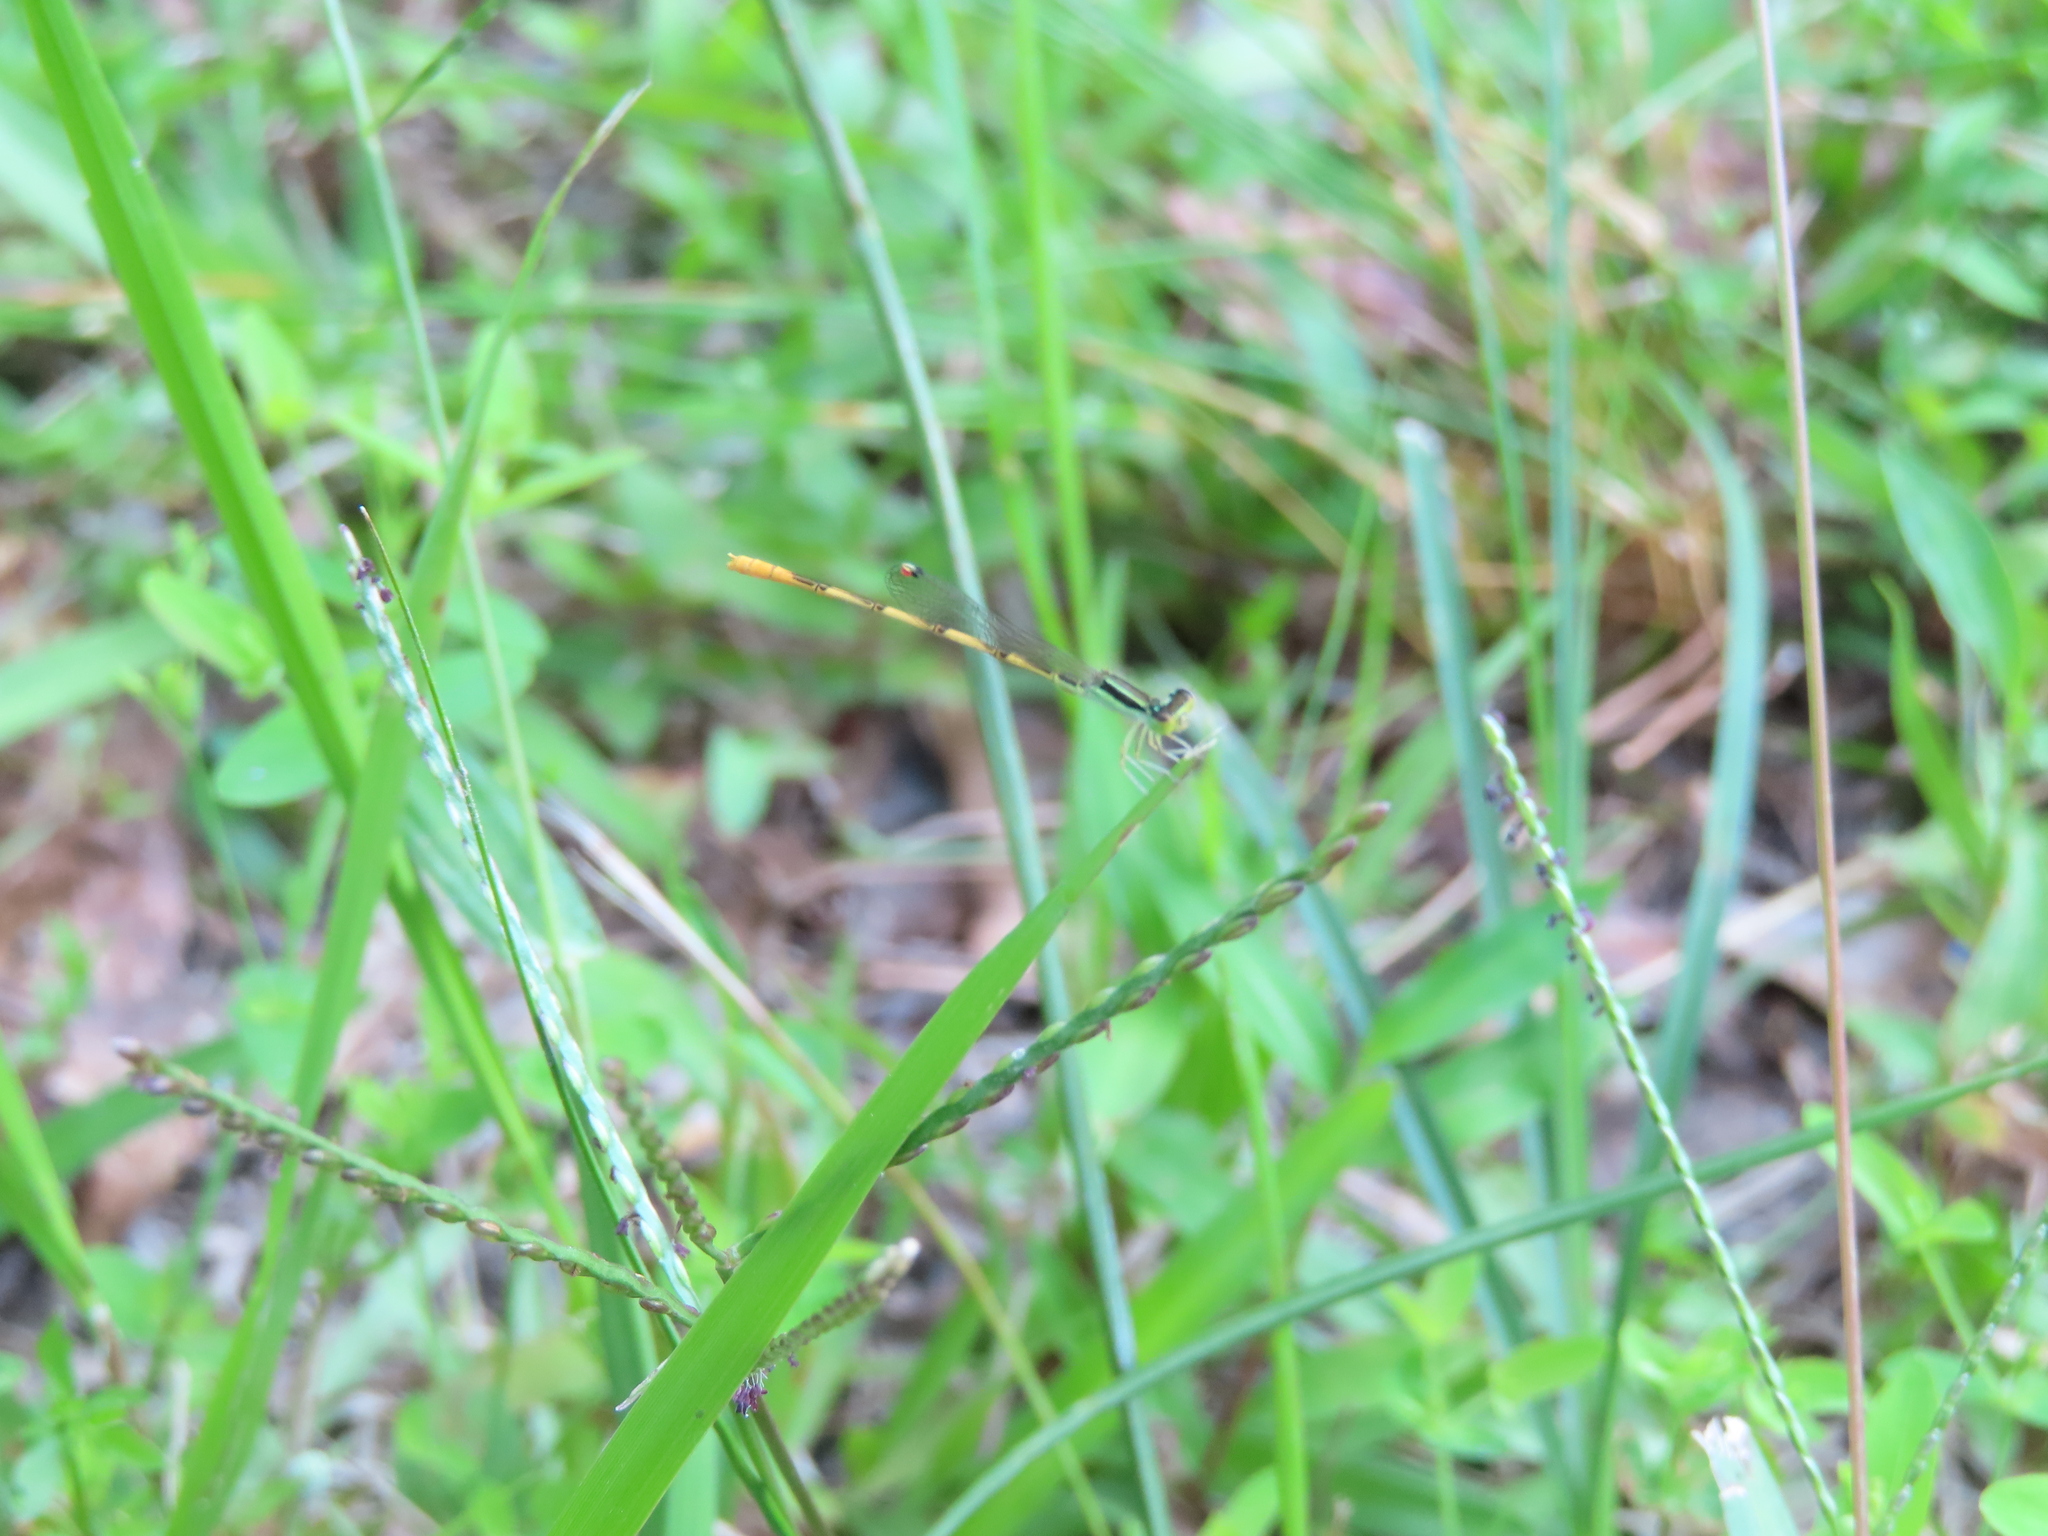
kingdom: Animalia
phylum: Arthropoda
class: Insecta
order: Odonata
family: Coenagrionidae
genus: Ischnura
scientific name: Ischnura hastata
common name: Citrine forktail
